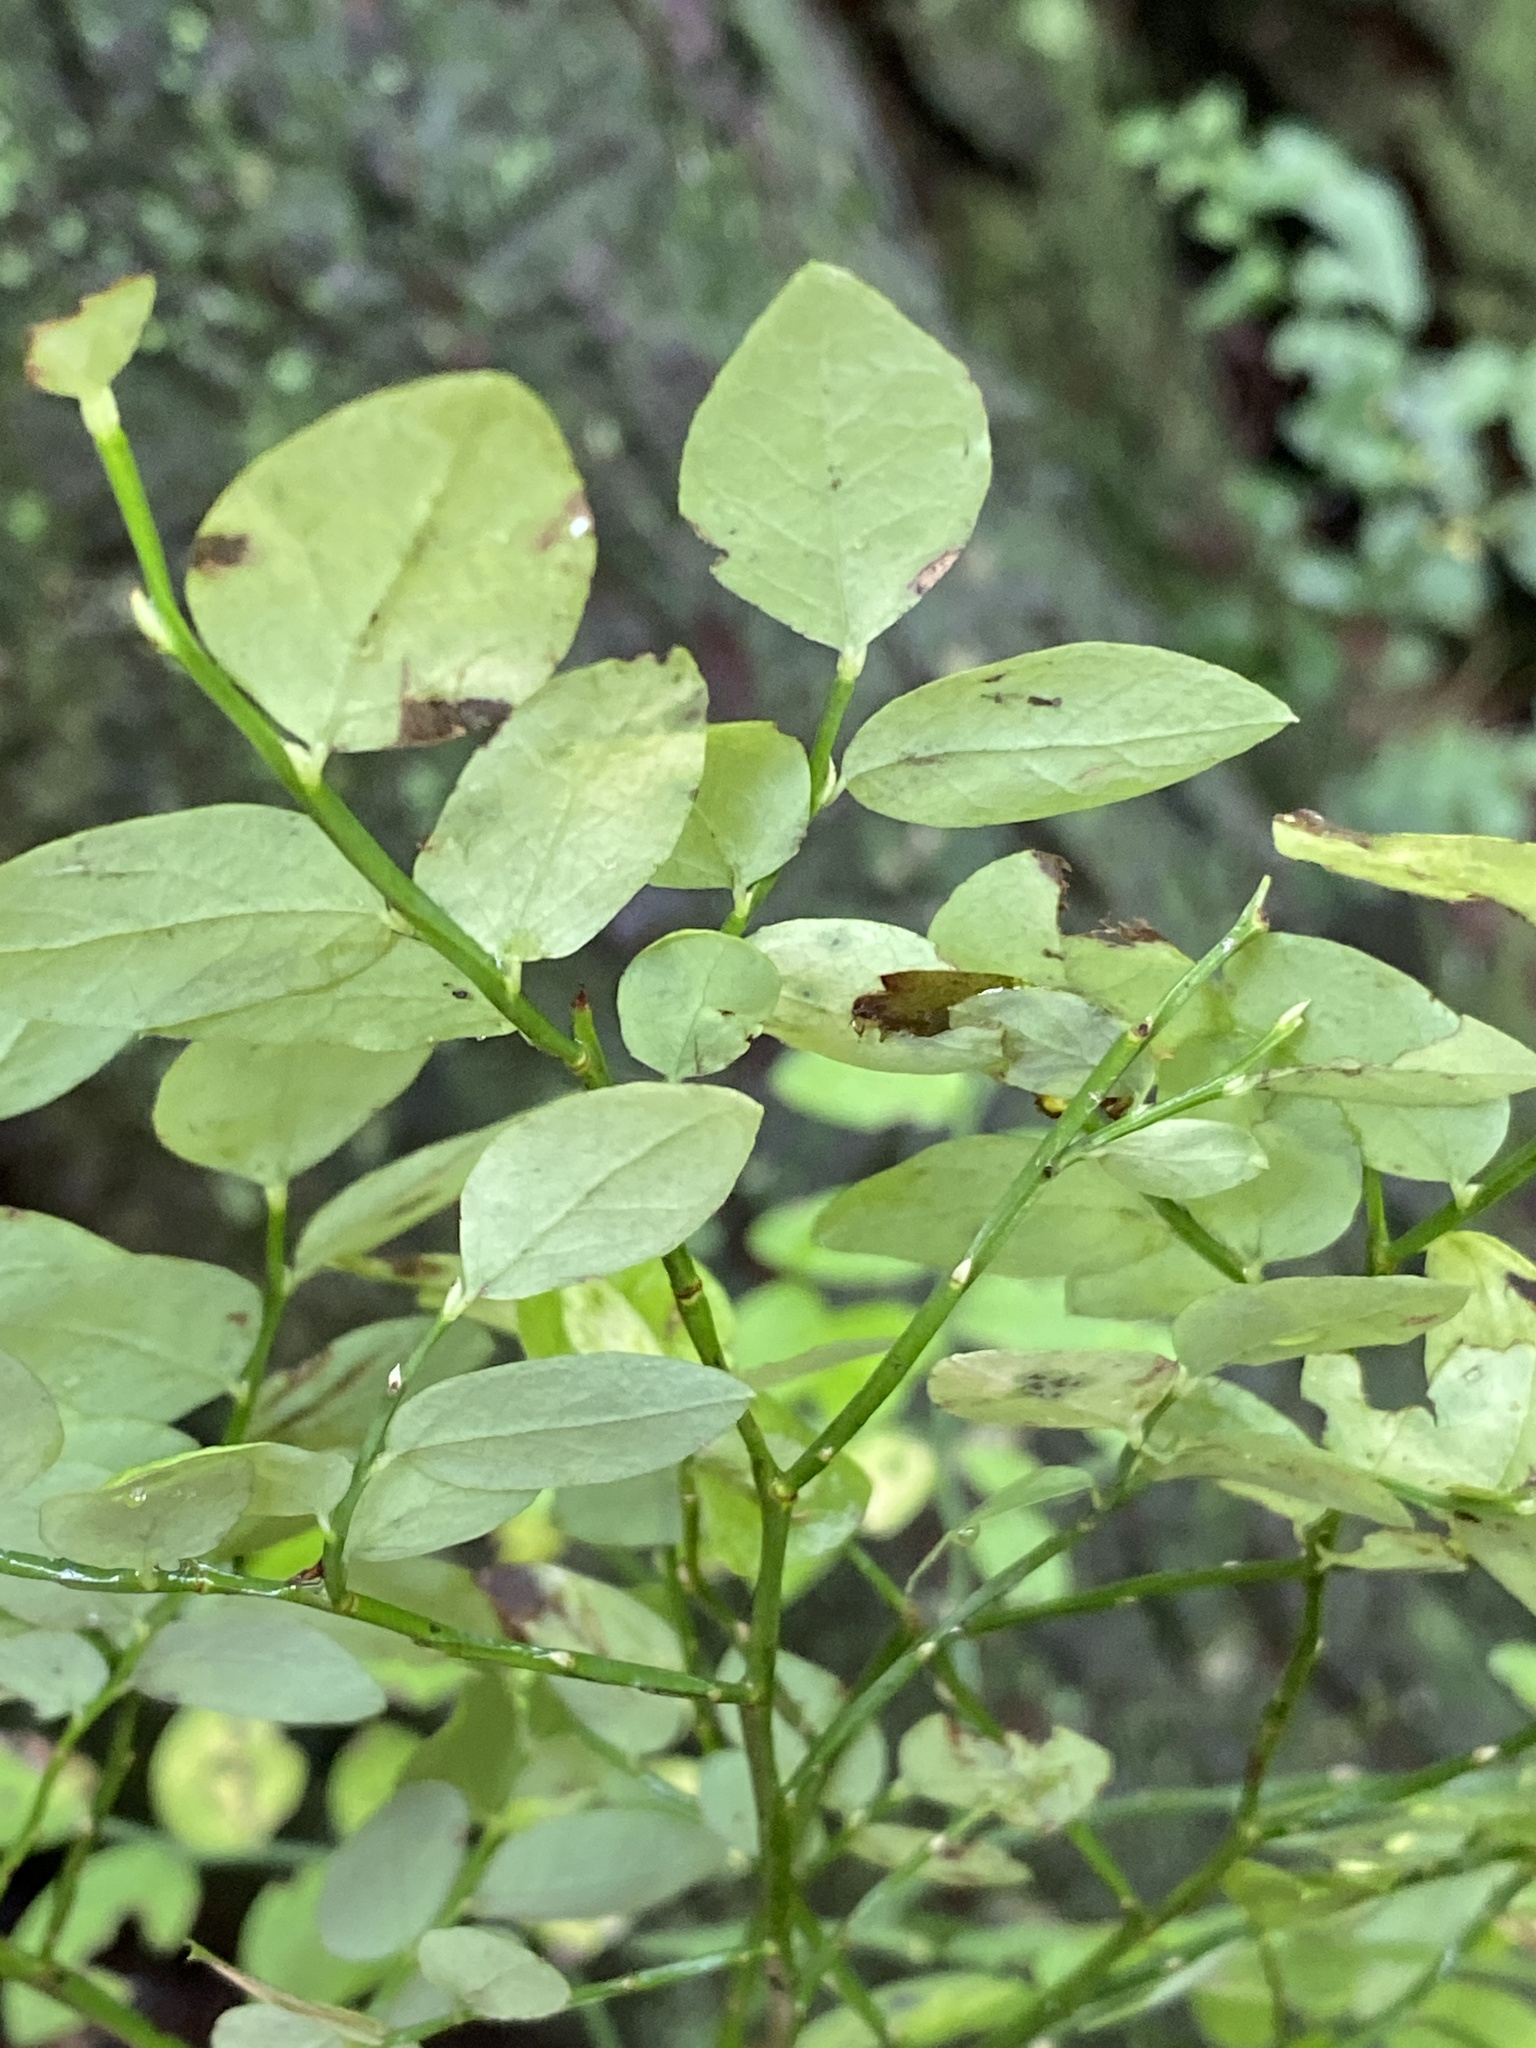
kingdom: Plantae
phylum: Tracheophyta
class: Magnoliopsida
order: Ericales
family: Ericaceae
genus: Vaccinium
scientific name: Vaccinium parvifolium
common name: Red-huckleberry
